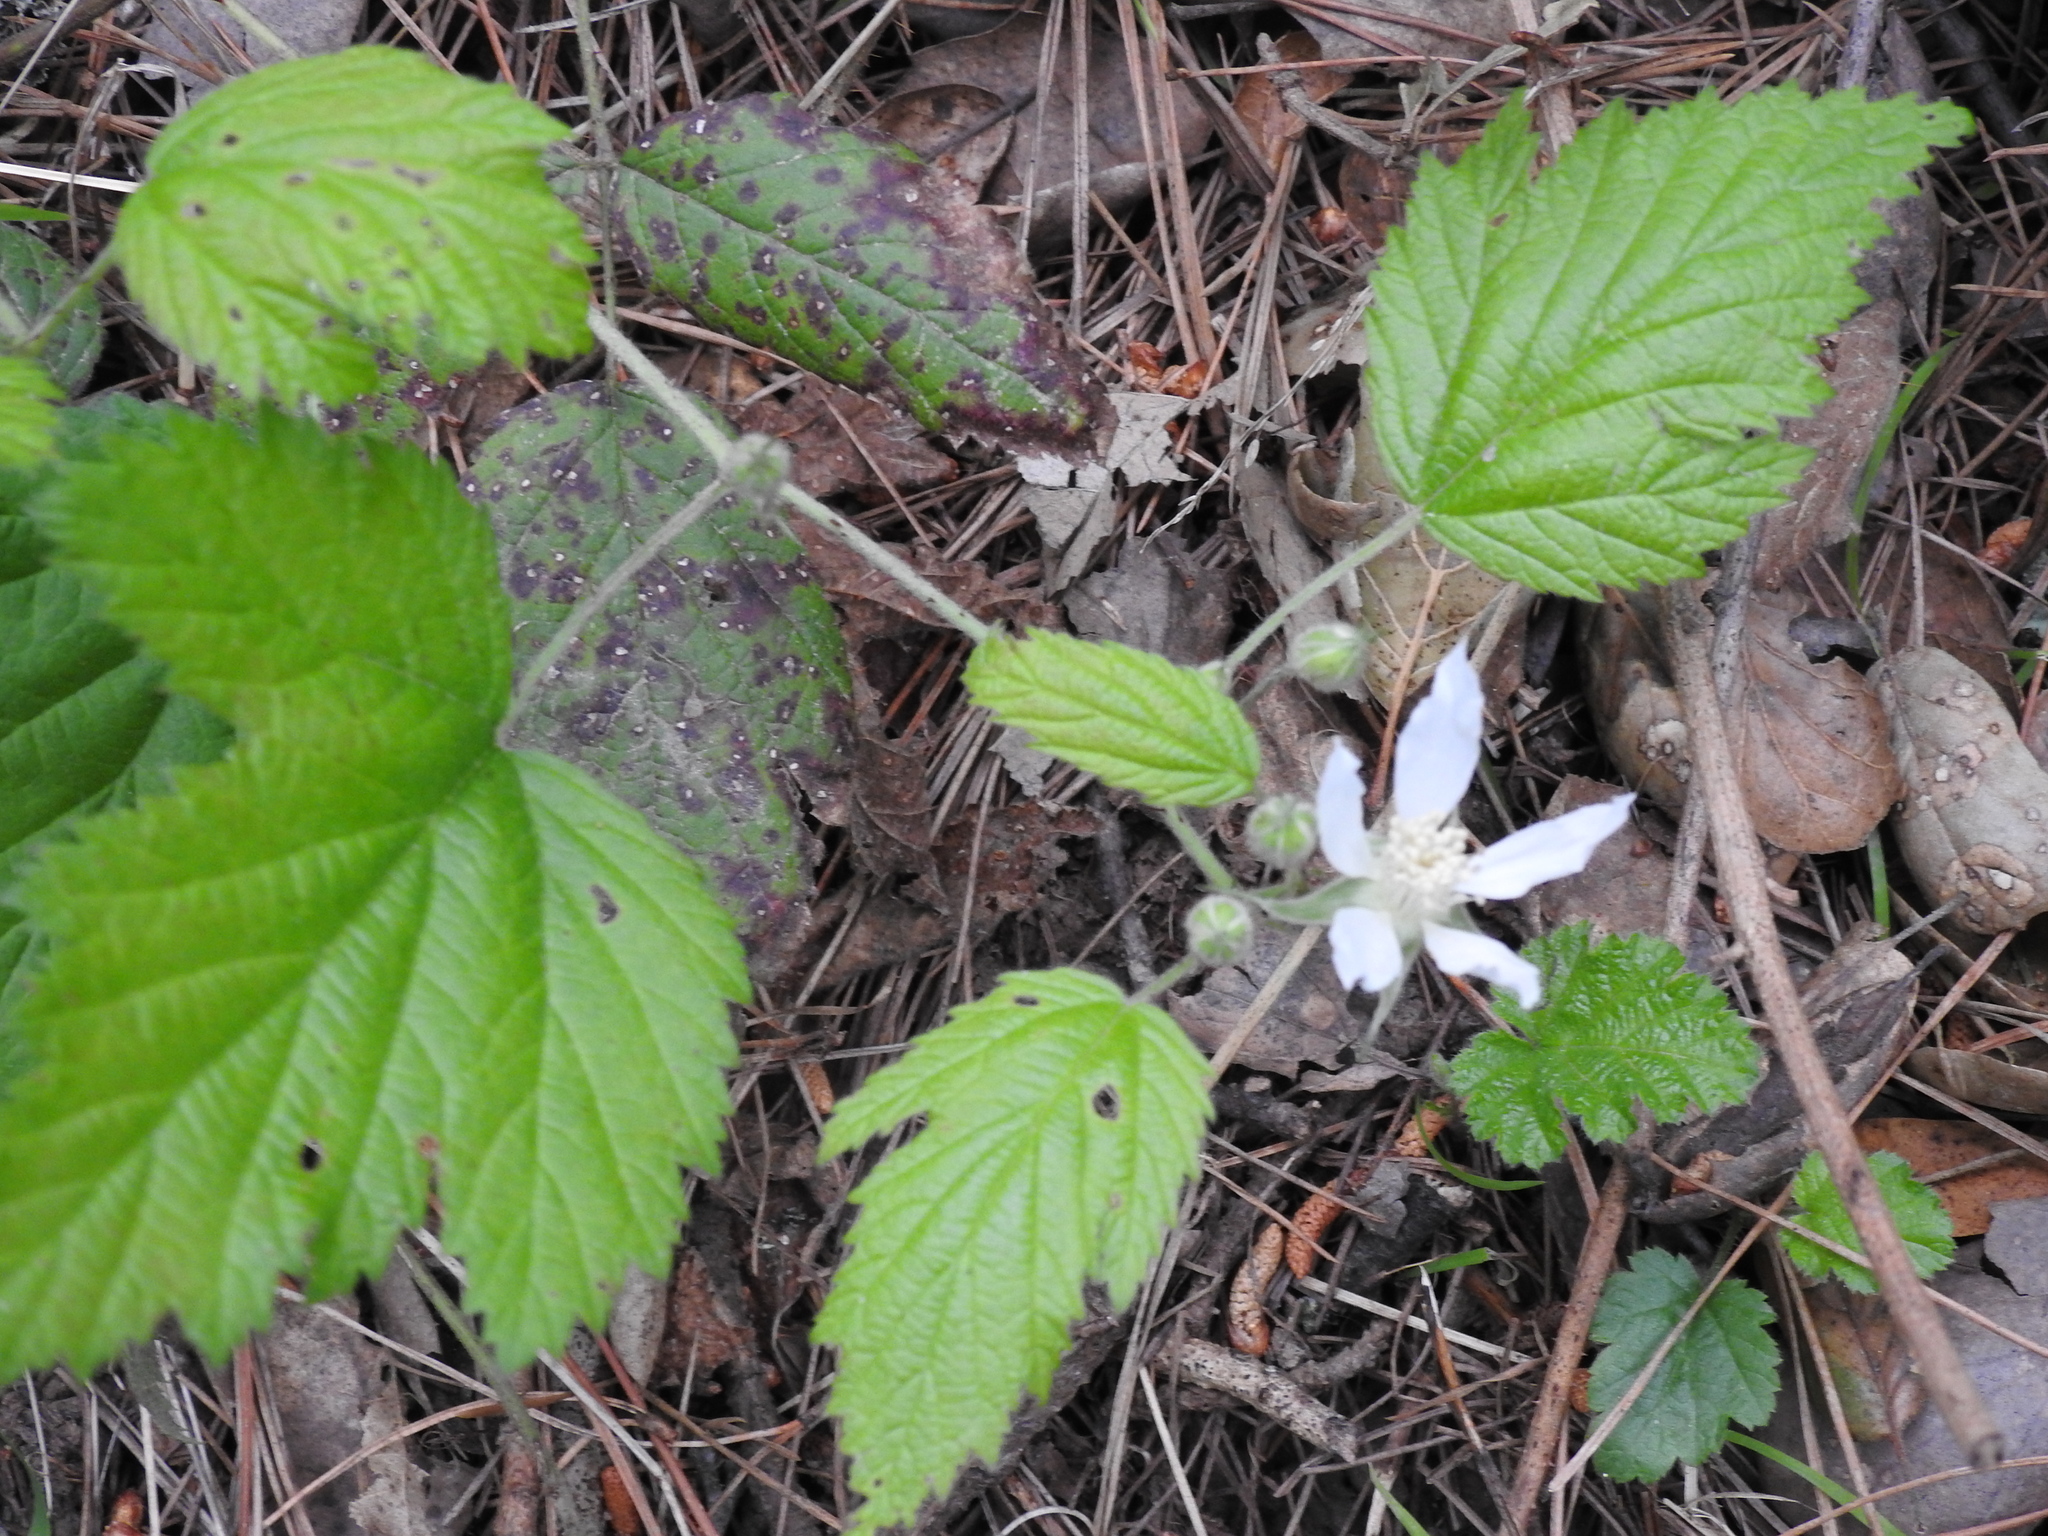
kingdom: Plantae
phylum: Tracheophyta
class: Magnoliopsida
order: Rosales
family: Rosaceae
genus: Rubus
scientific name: Rubus ursinus
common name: Pacific blackberry
